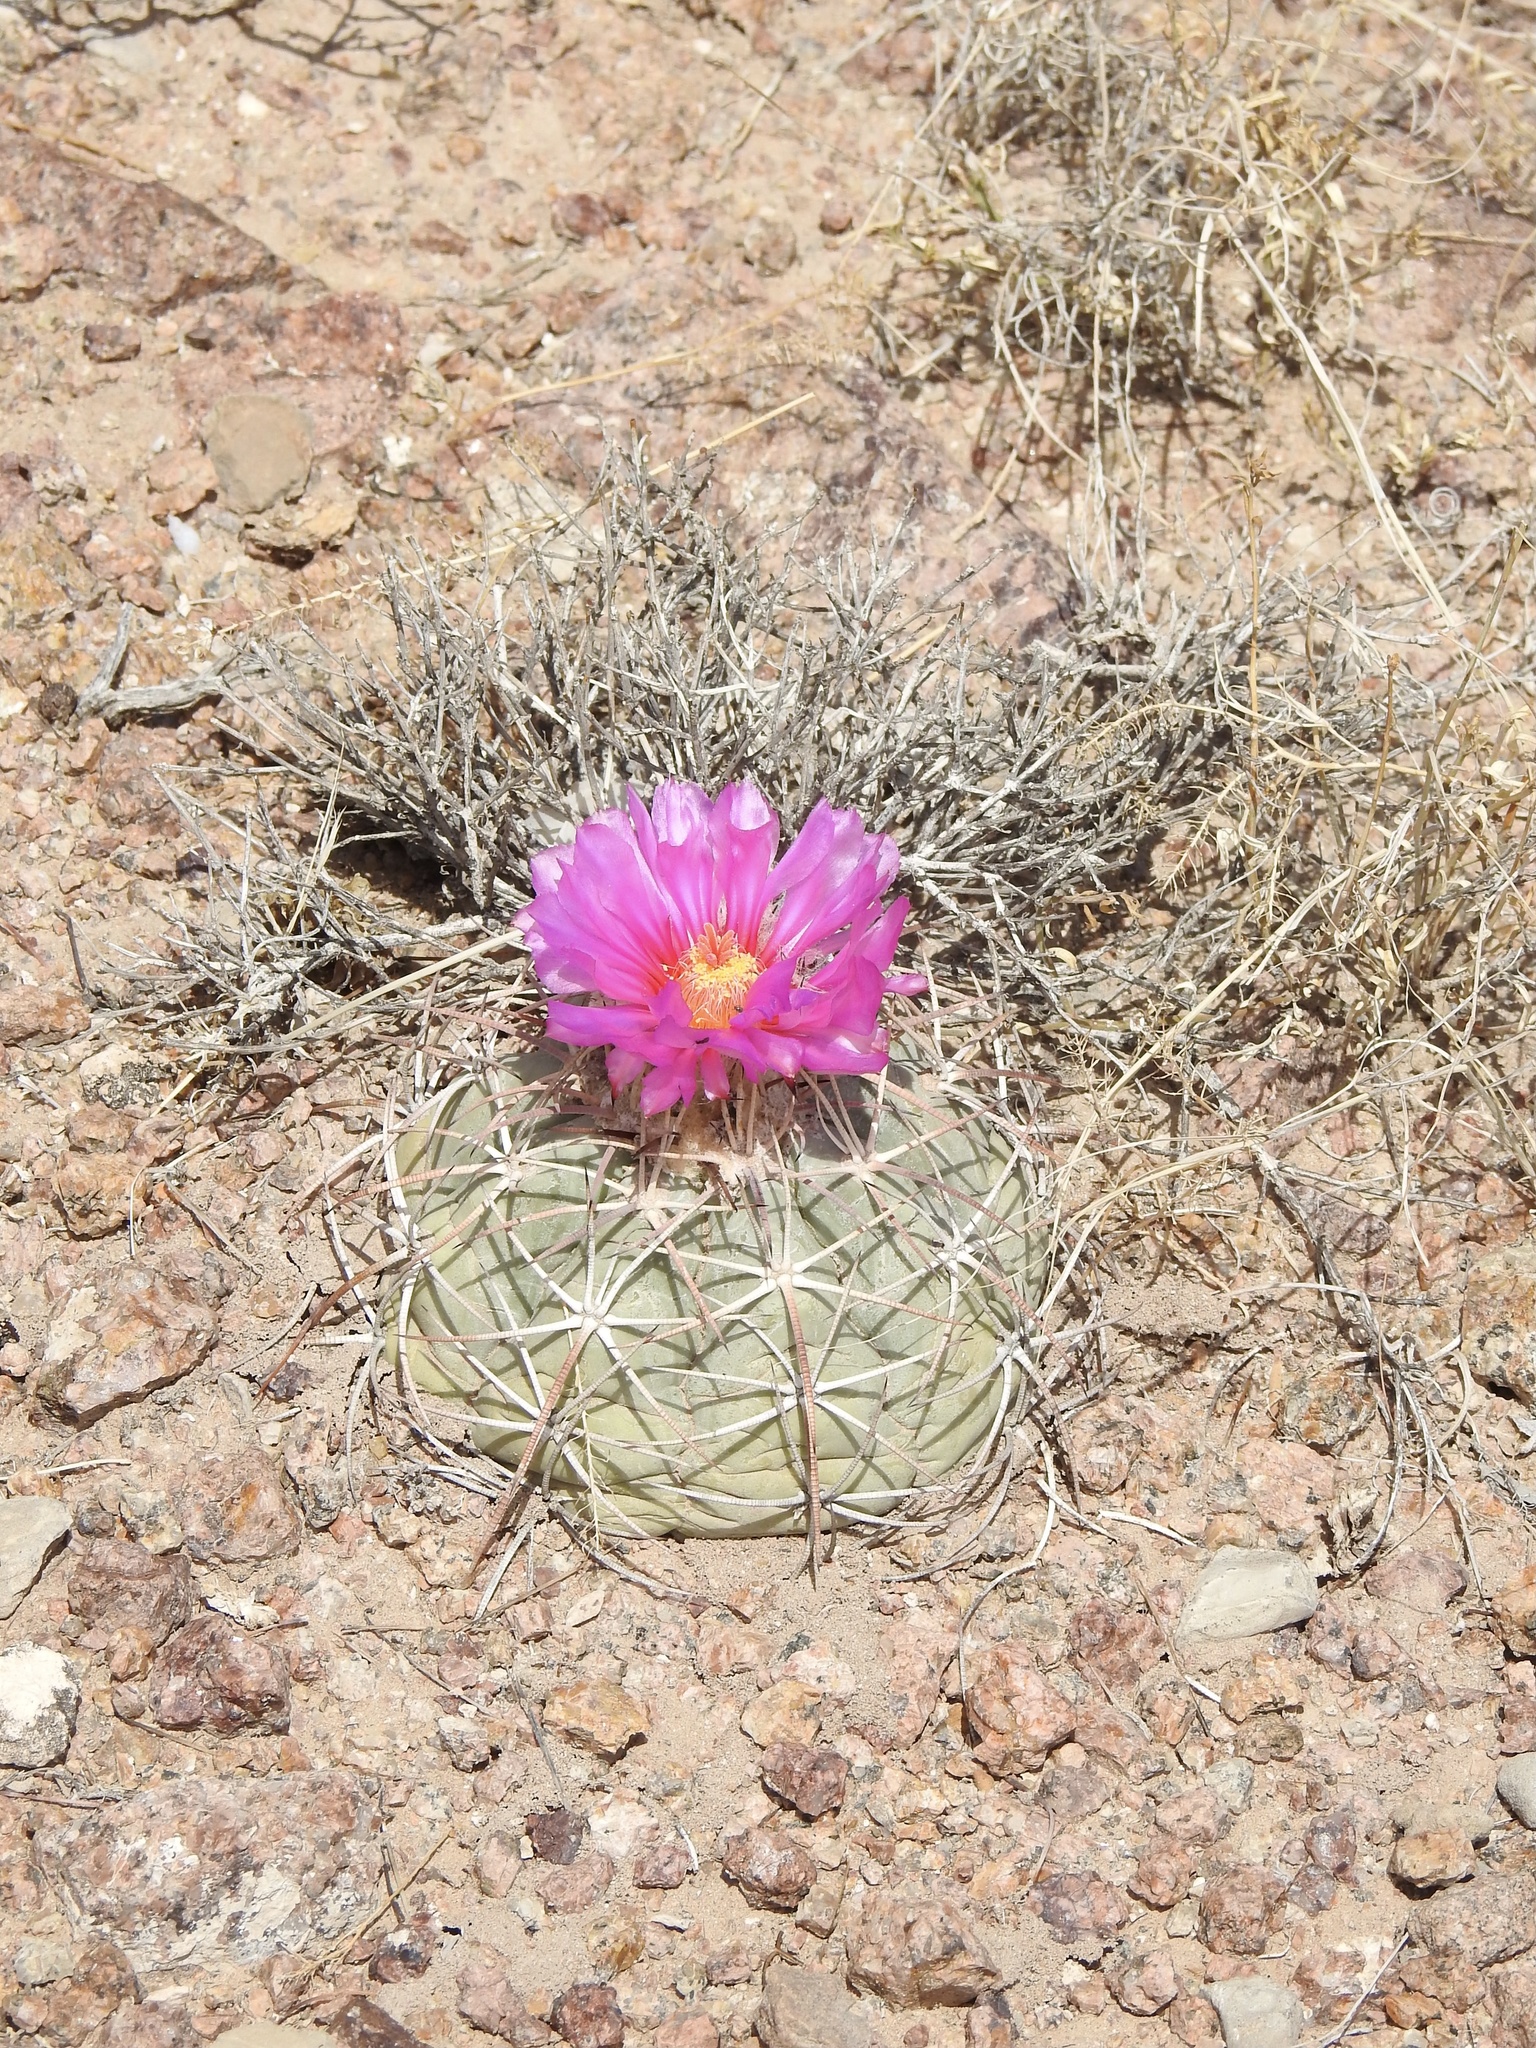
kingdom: Plantae
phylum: Tracheophyta
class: Magnoliopsida
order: Caryophyllales
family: Cactaceae
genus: Echinocactus
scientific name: Echinocactus horizonthalonius
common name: Devilshead
